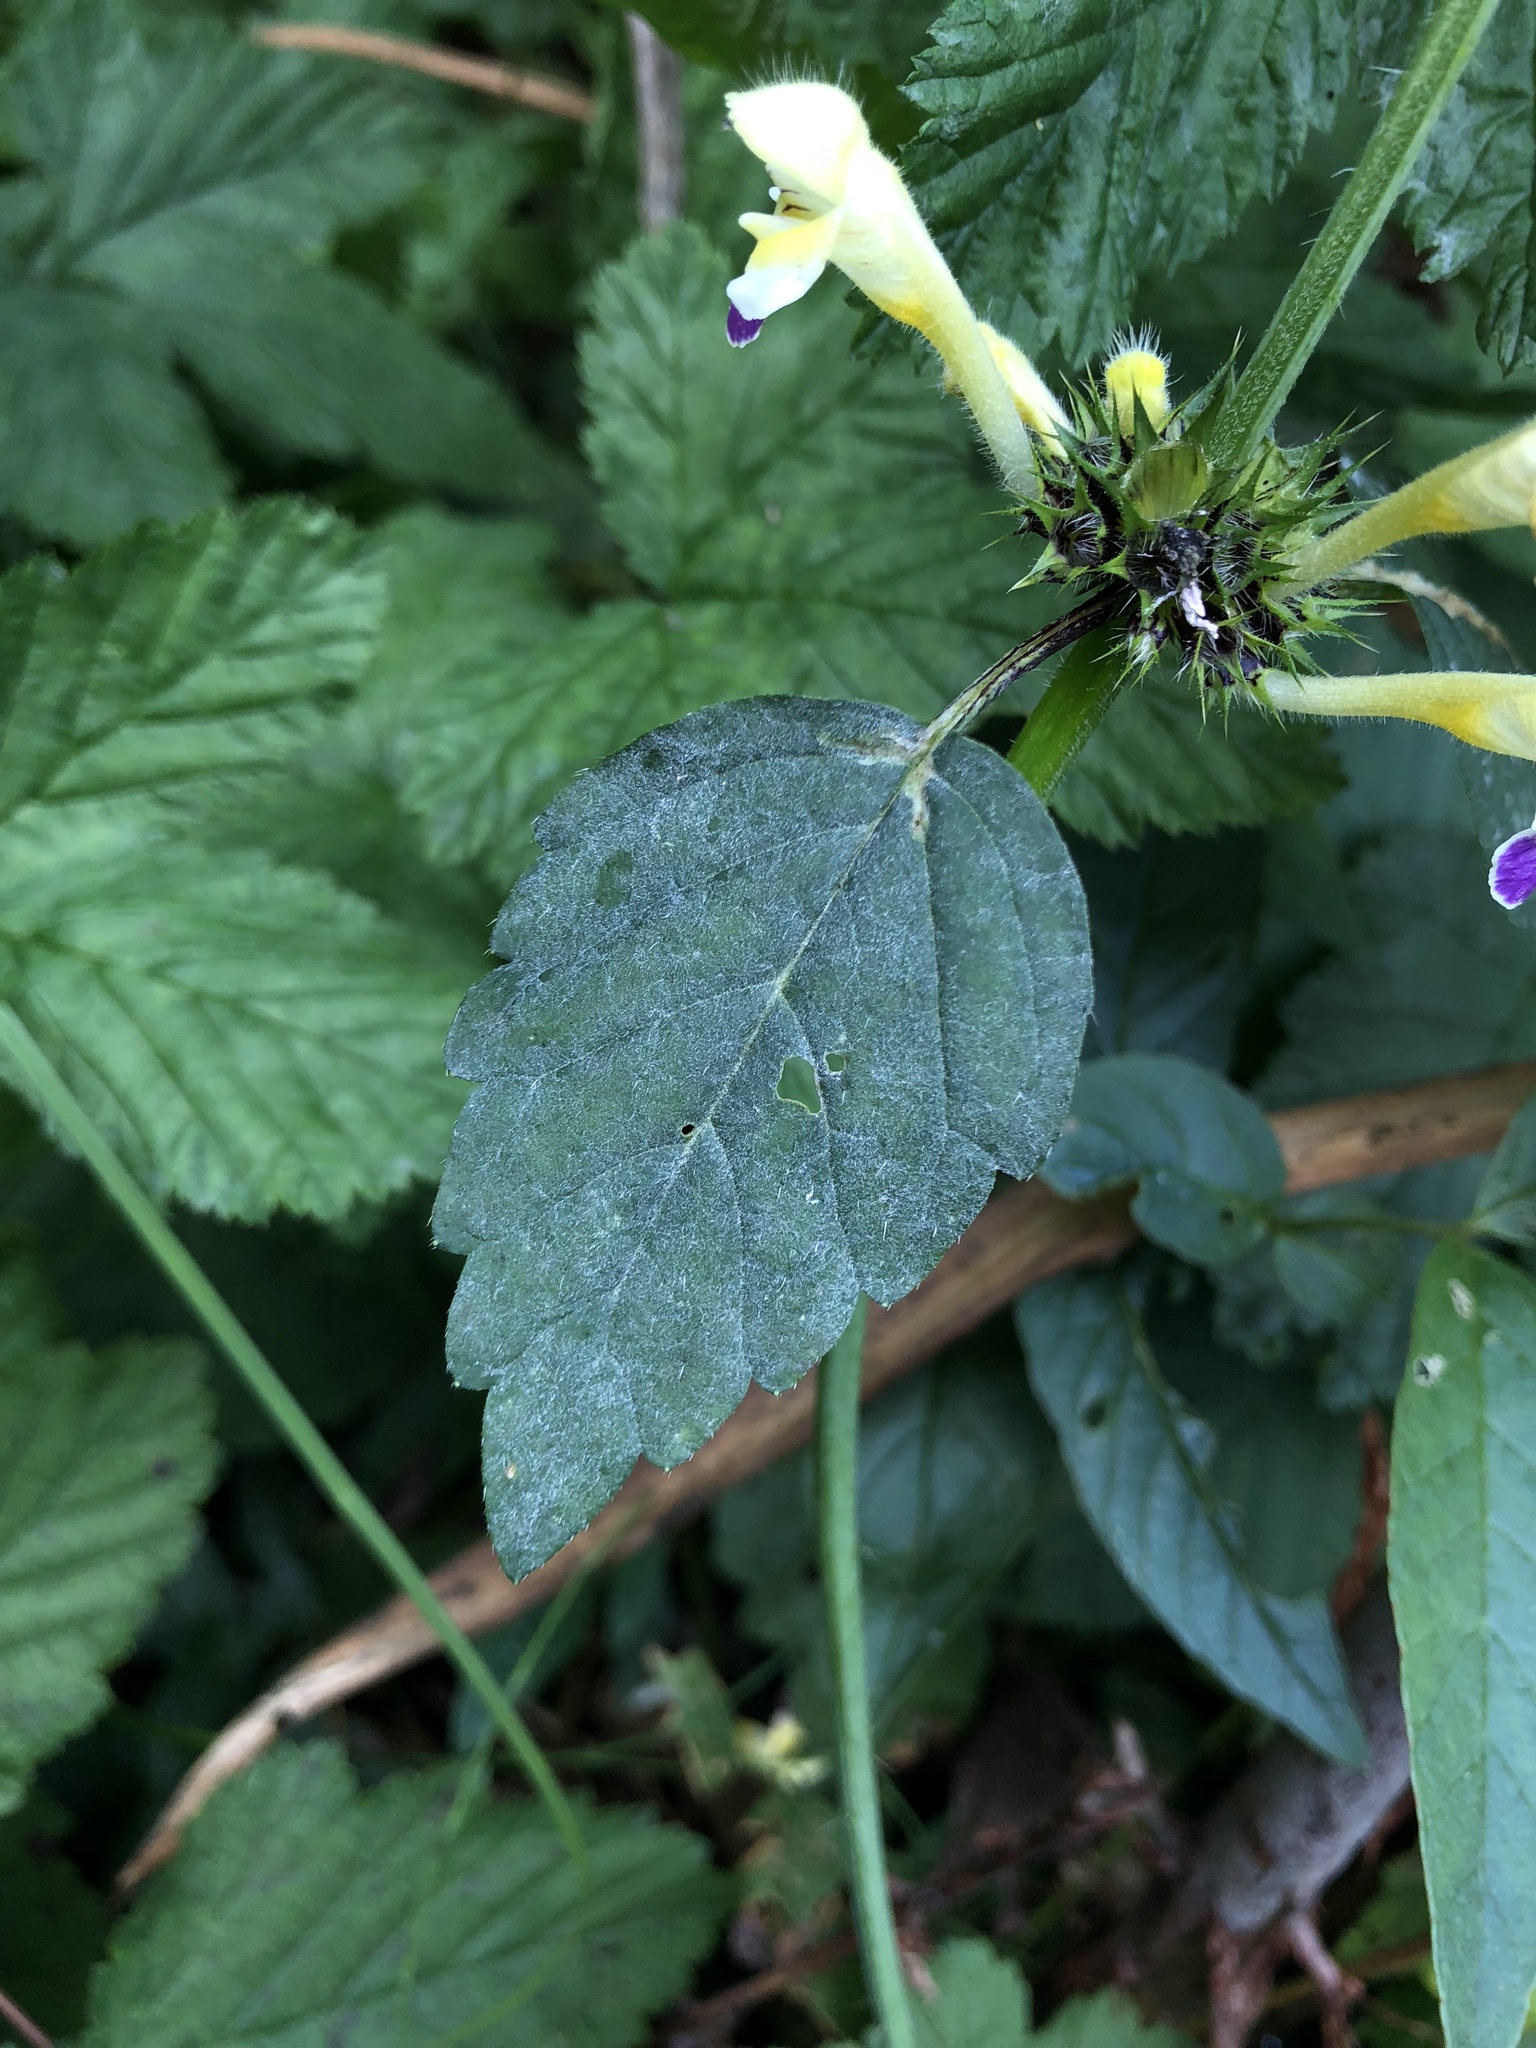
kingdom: Plantae
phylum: Tracheophyta
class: Magnoliopsida
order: Lamiales
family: Lamiaceae
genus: Galeopsis
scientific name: Galeopsis speciosa
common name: Large-flowered hemp-nettle
